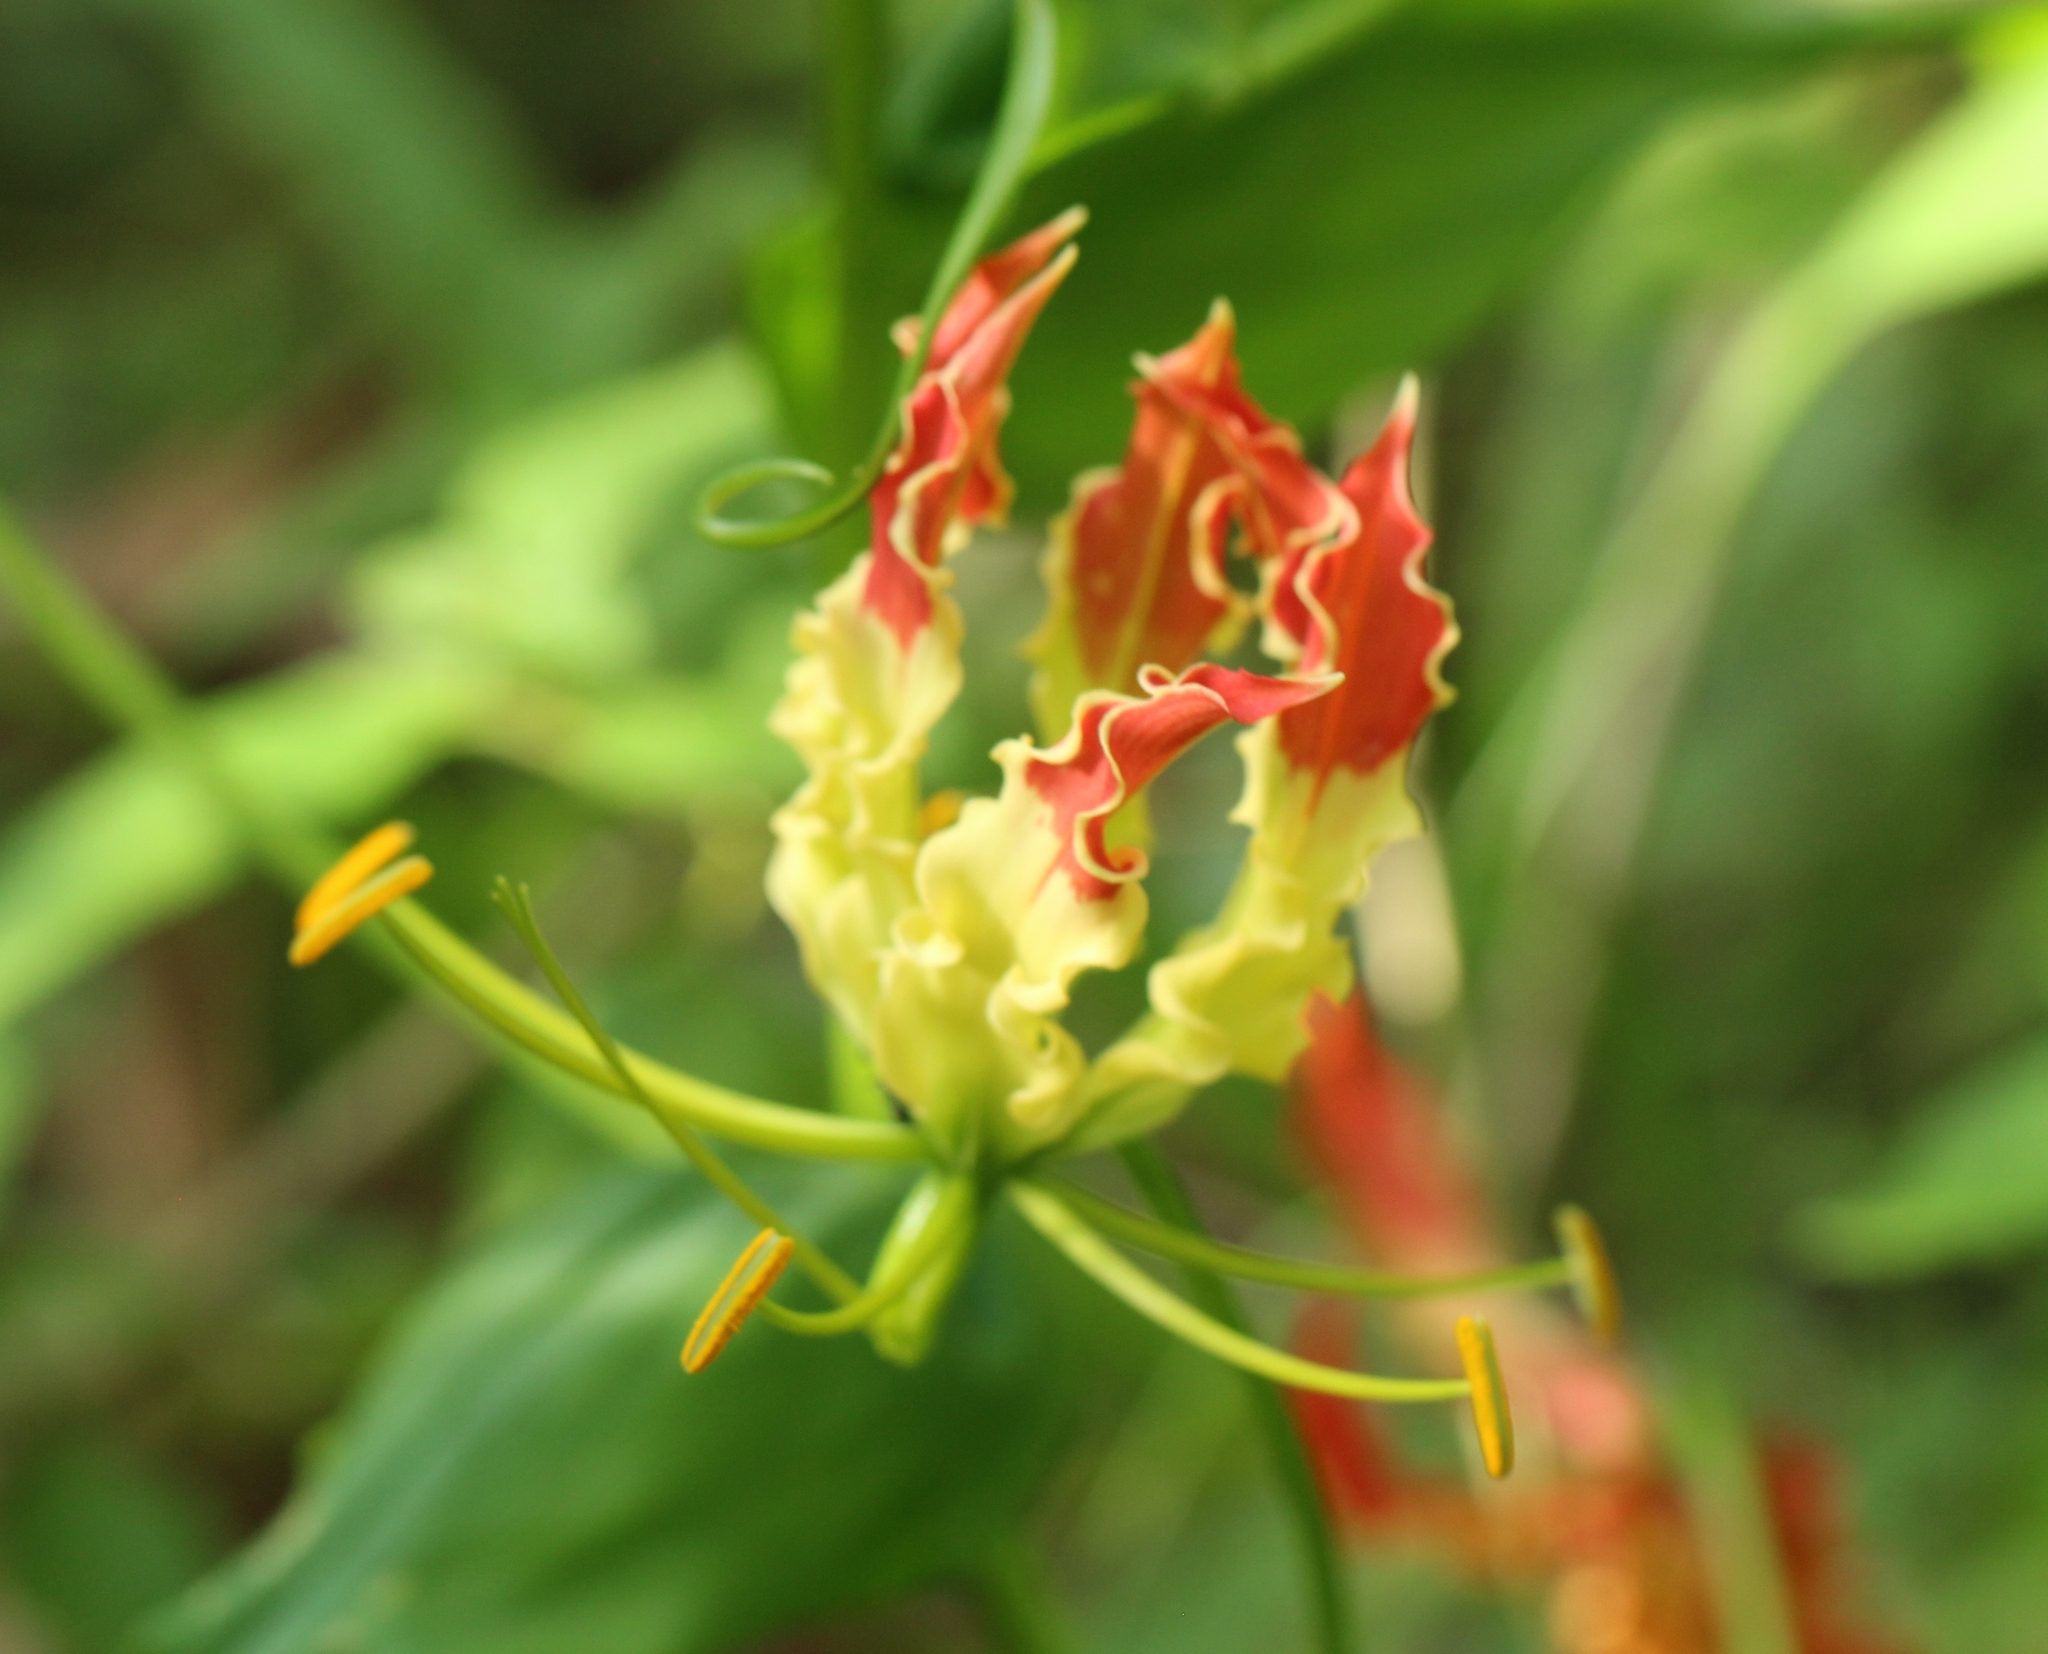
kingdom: Plantae
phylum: Tracheophyta
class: Liliopsida
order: Liliales
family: Colchicaceae
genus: Gloriosa
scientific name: Gloriosa superba
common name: Flame lily
